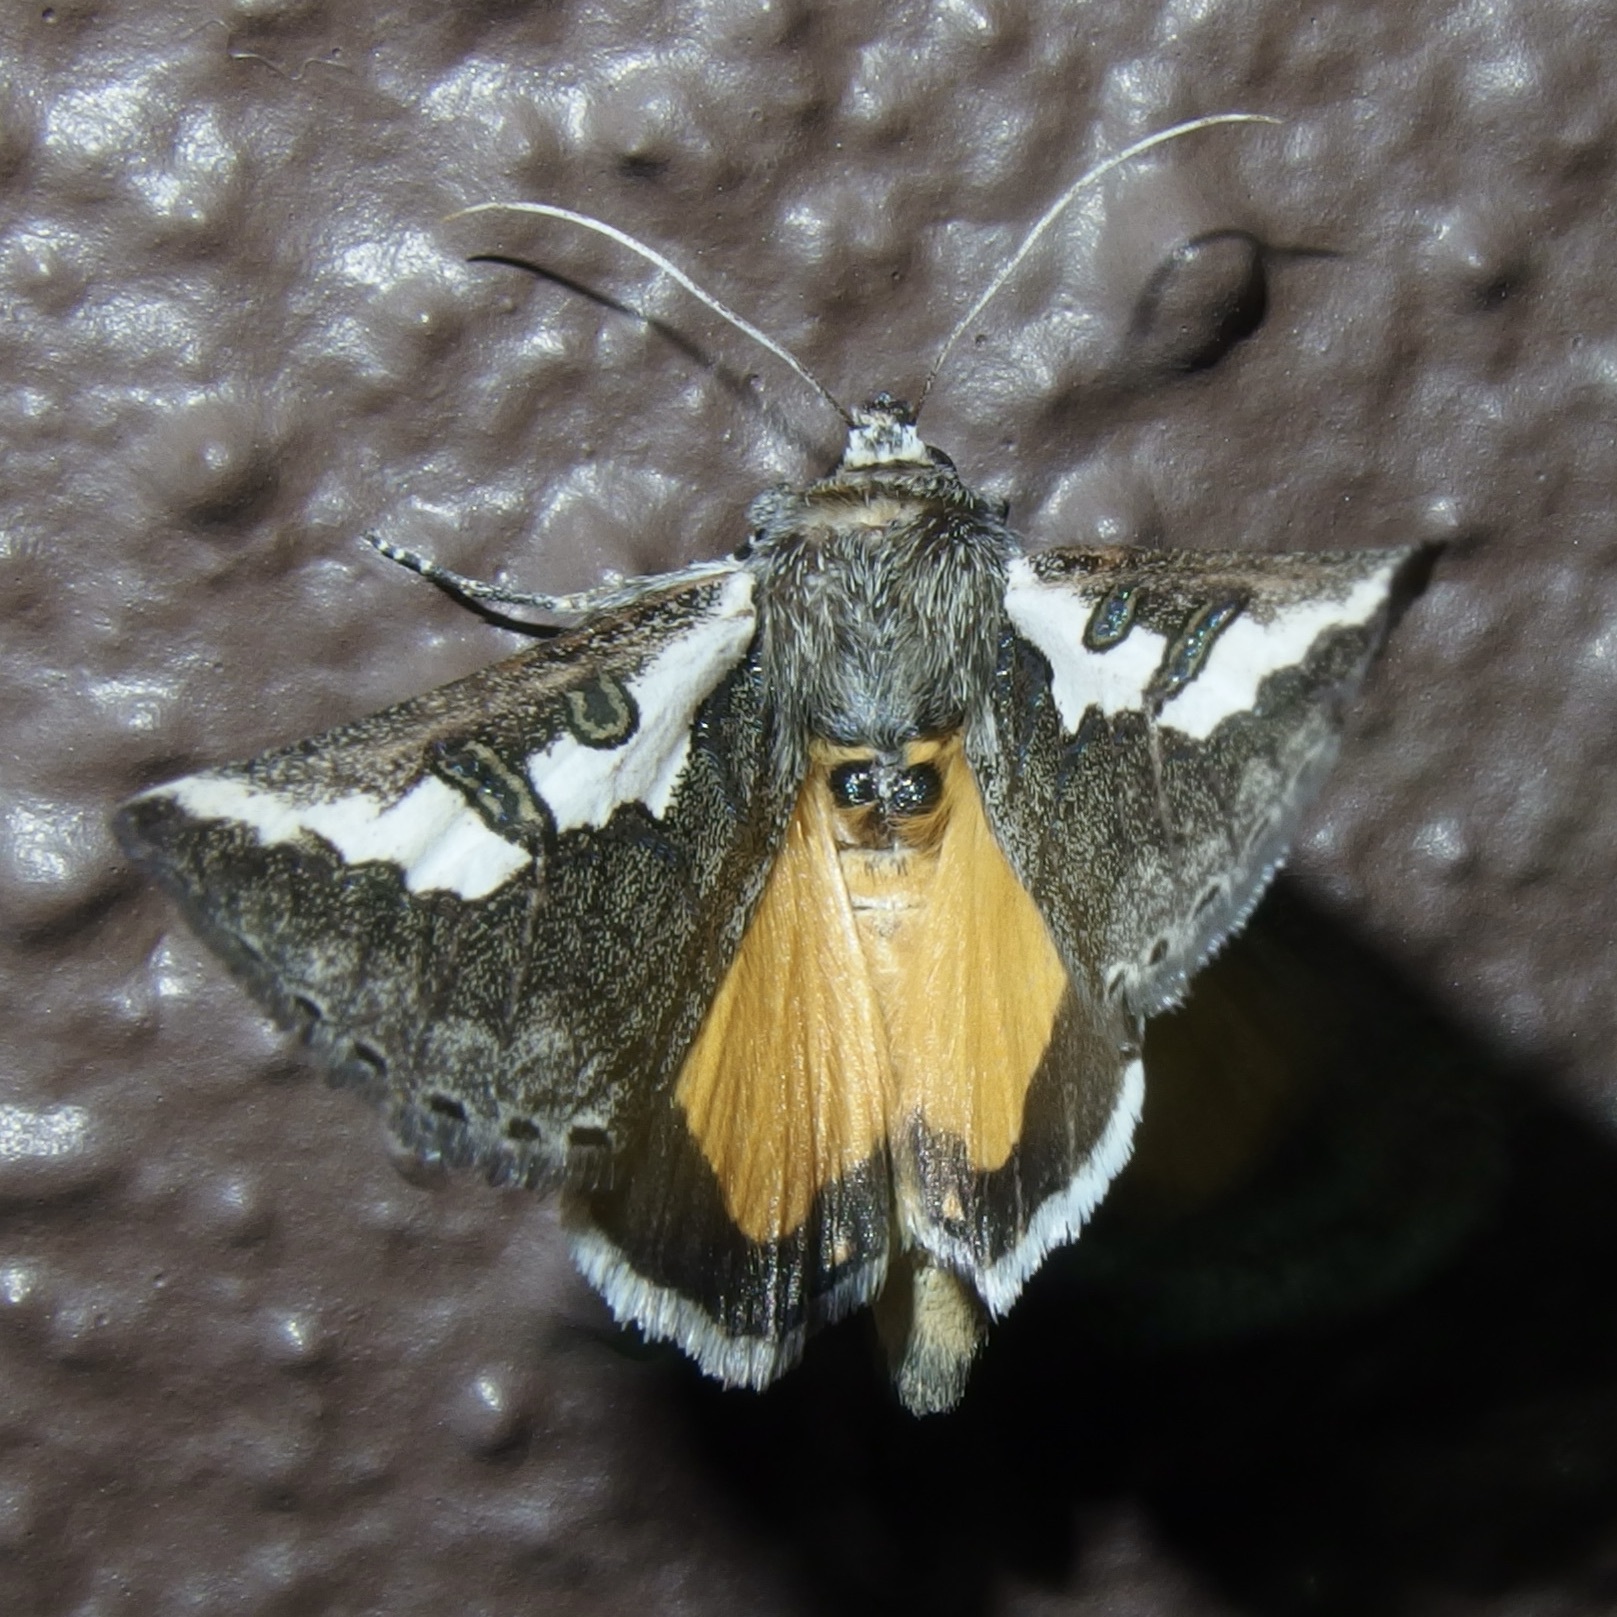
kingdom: Animalia
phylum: Arthropoda
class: Insecta
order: Lepidoptera
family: Noctuidae
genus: Euscirrhopterus
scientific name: Euscirrhopterus gloveri
